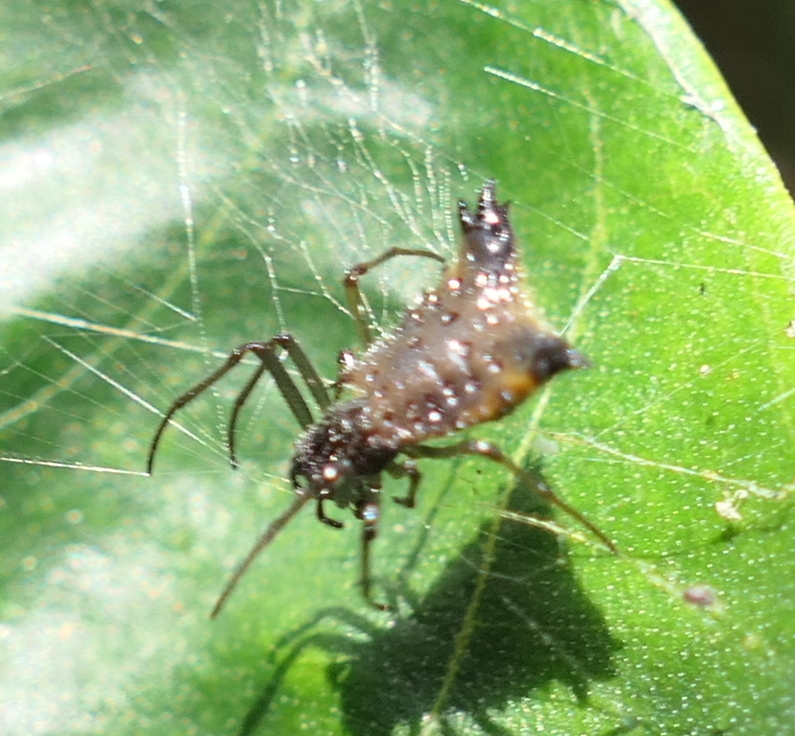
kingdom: Animalia
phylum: Arthropoda
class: Arachnida
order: Araneae
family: Araneidae
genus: Micrathena
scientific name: Micrathena triangularis
